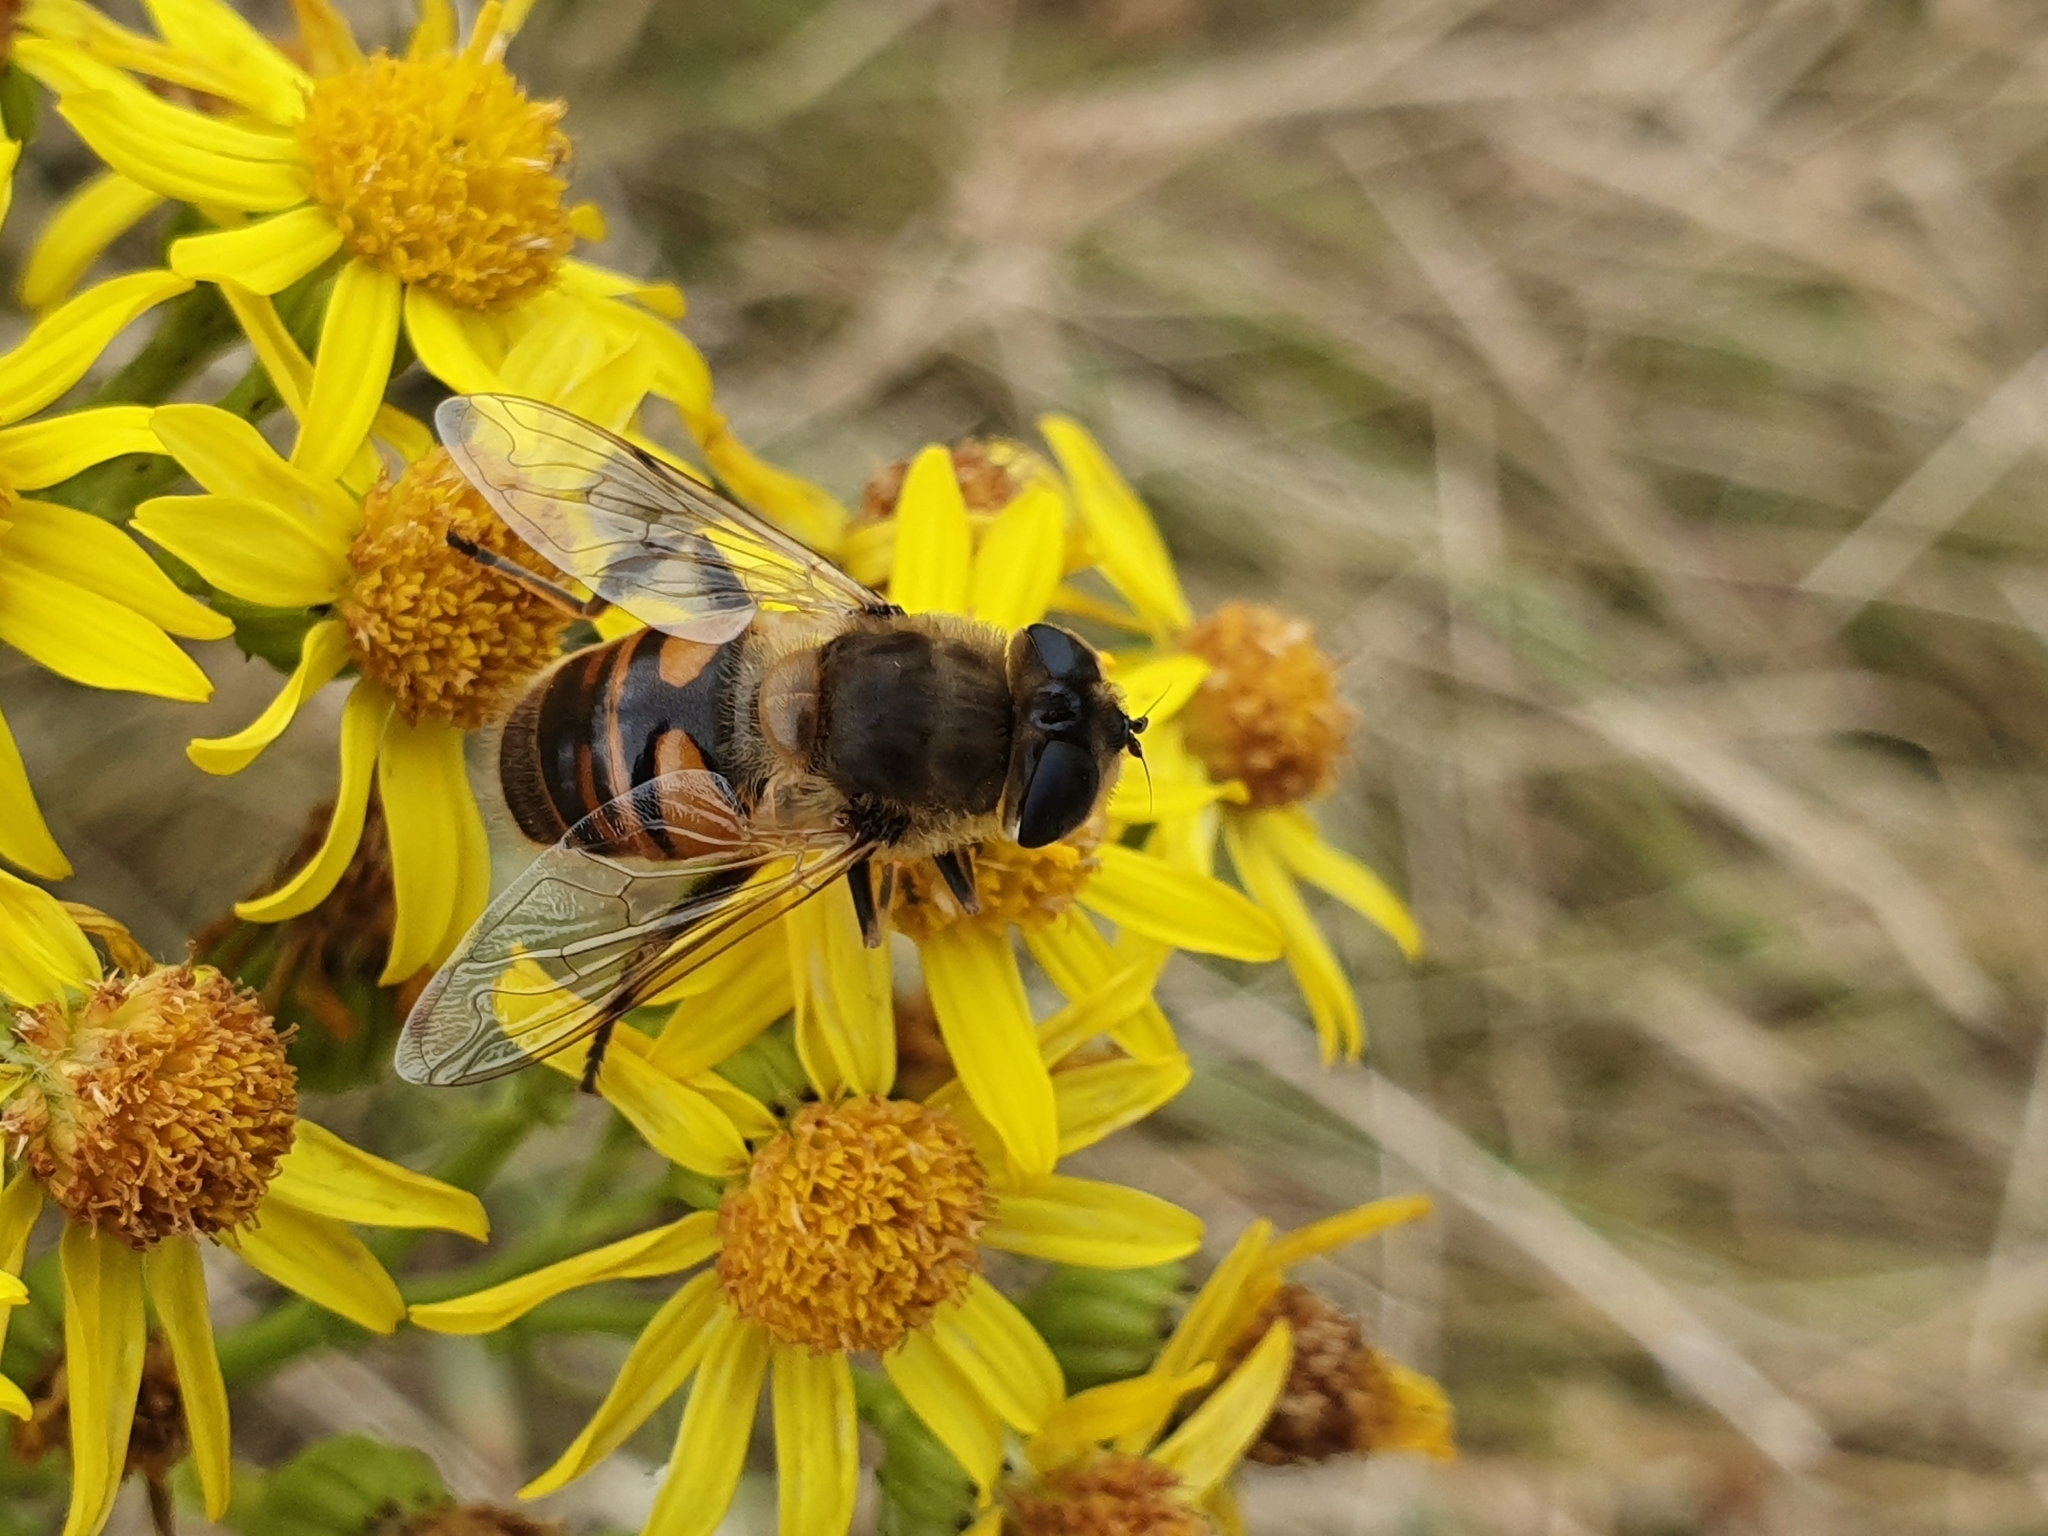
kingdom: Animalia
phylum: Arthropoda
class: Insecta
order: Diptera
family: Syrphidae
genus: Eristalis
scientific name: Eristalis tenax
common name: Drone fly
